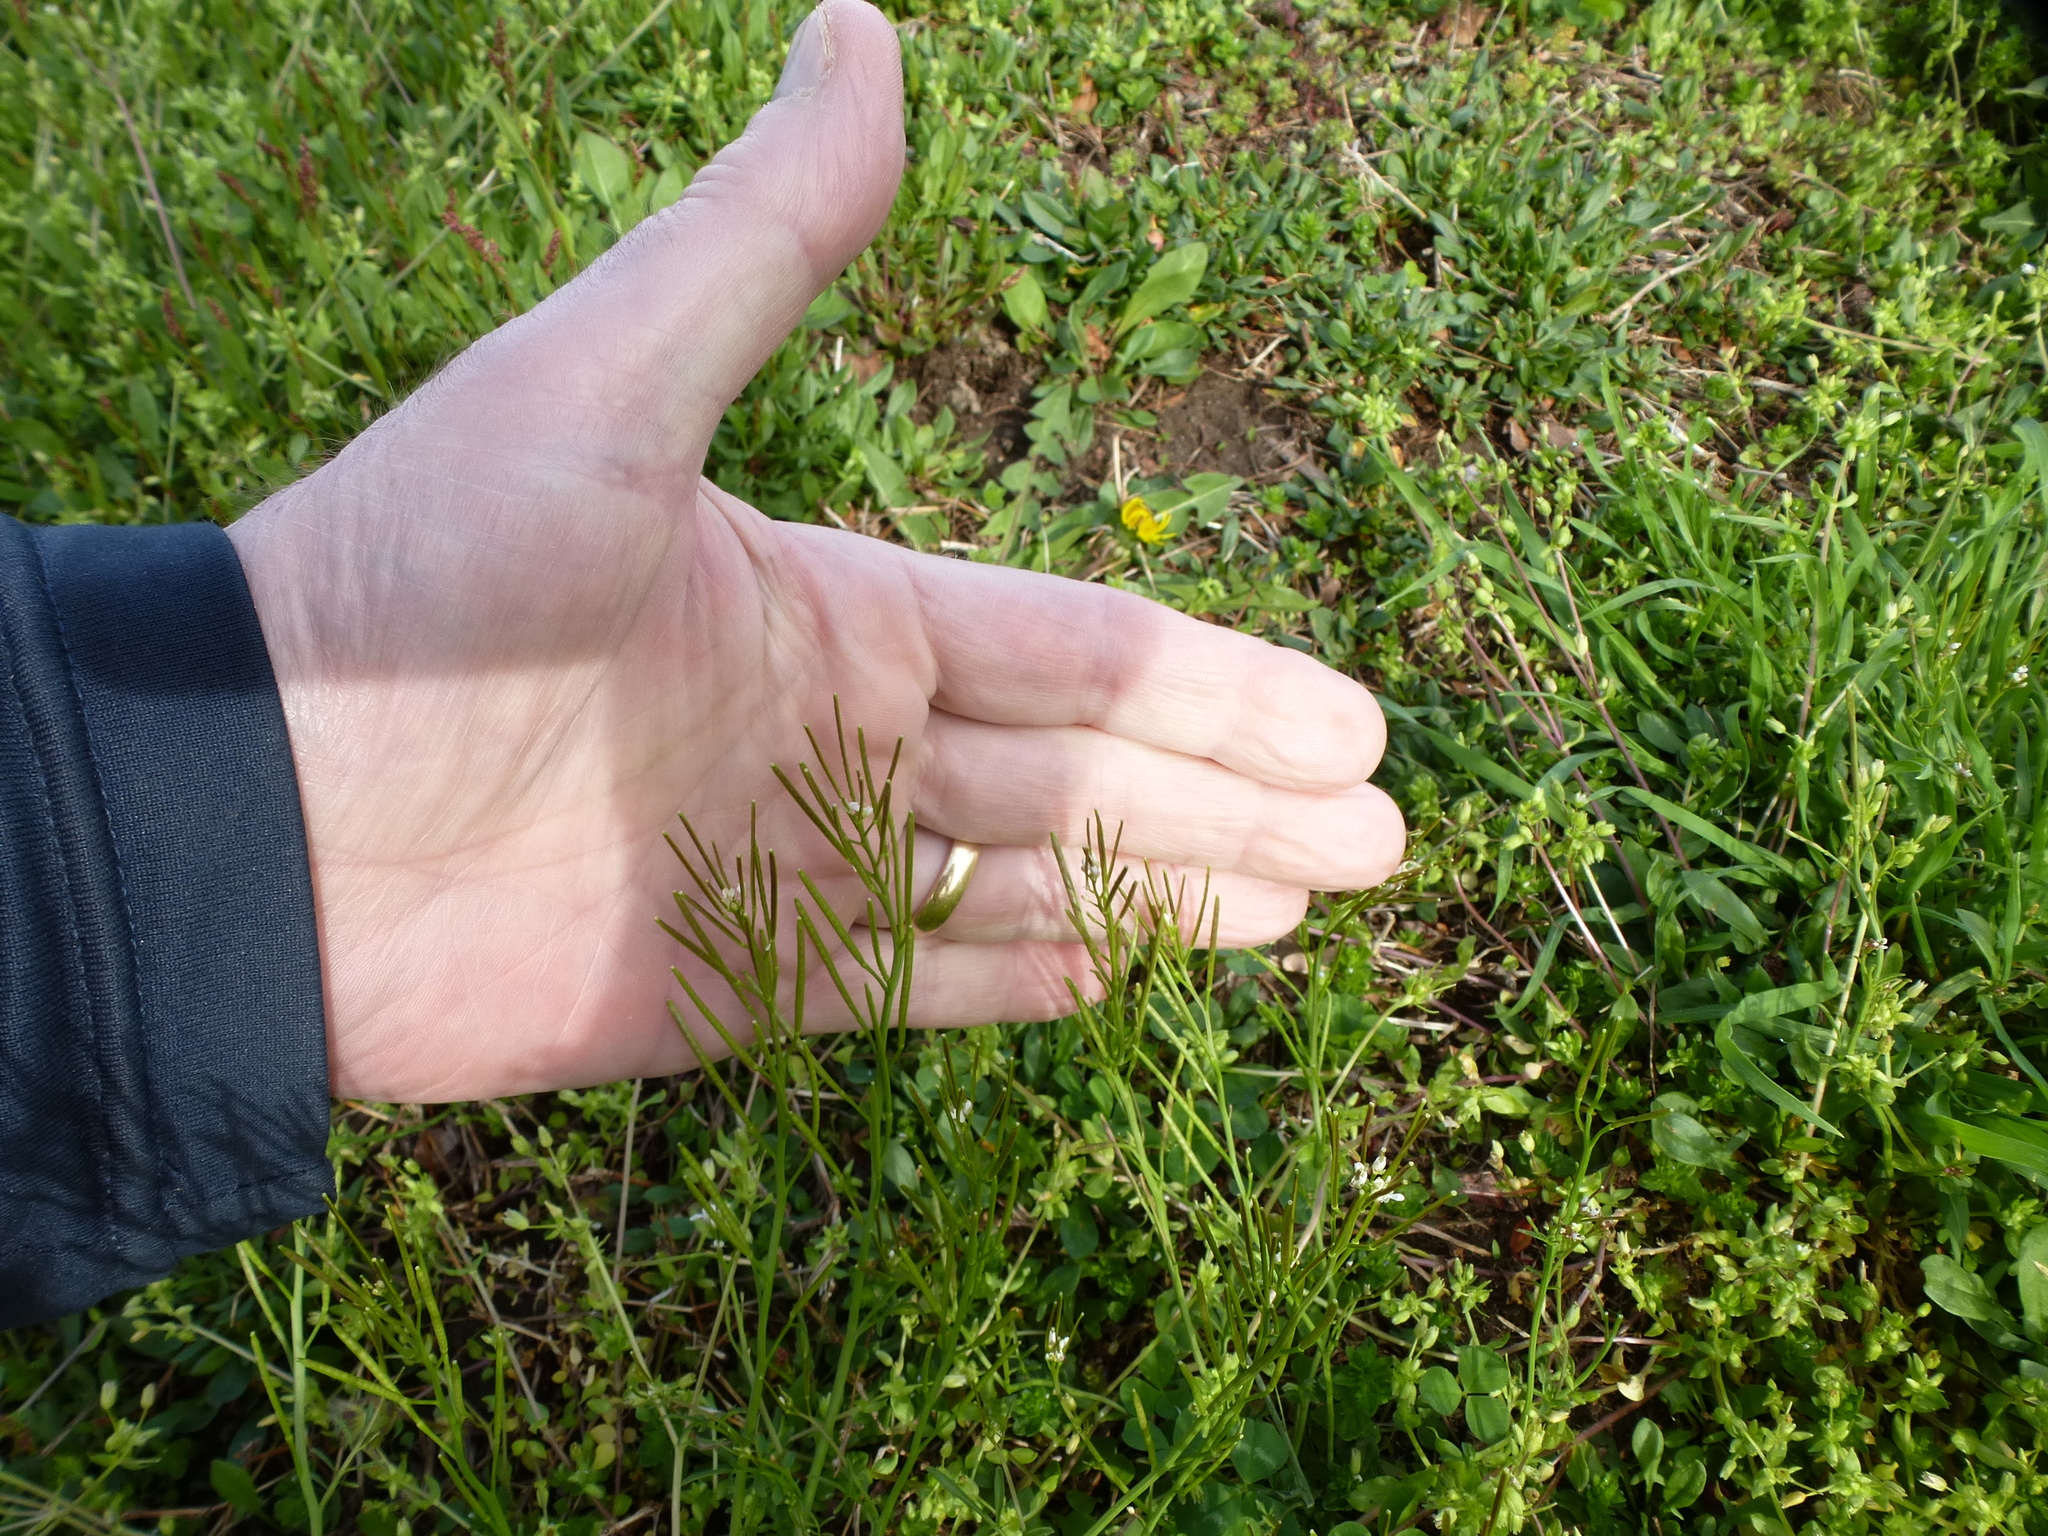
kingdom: Plantae
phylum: Tracheophyta
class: Magnoliopsida
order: Brassicales
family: Brassicaceae
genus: Cardamine
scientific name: Cardamine hirsuta
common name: Hairy bittercress
